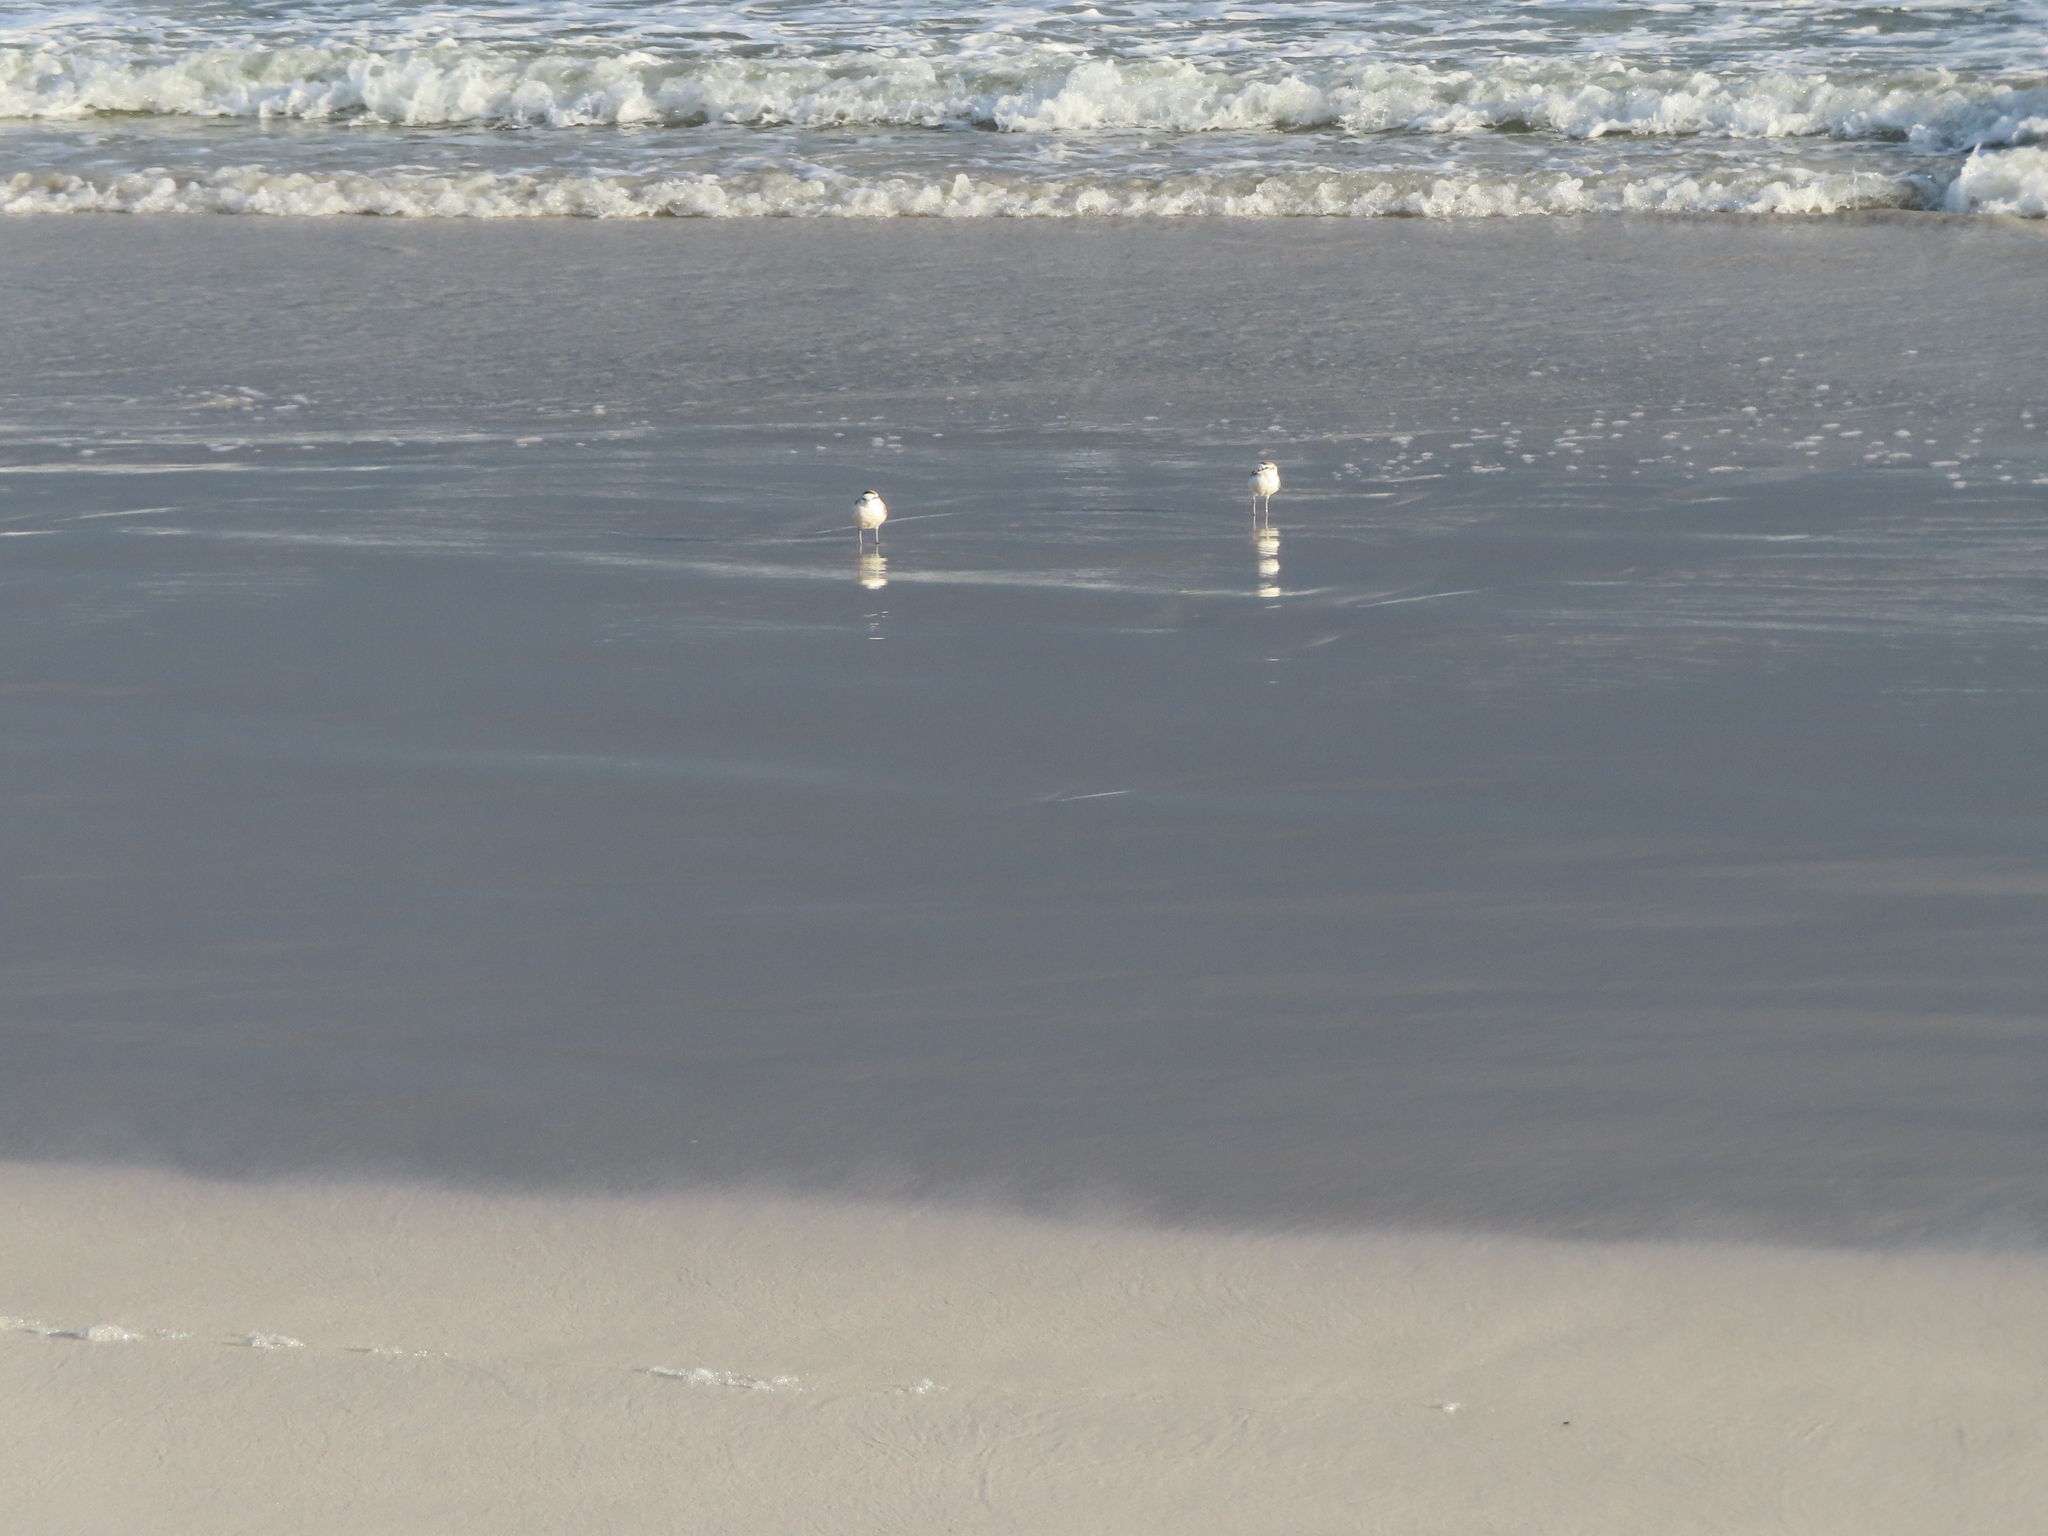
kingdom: Animalia
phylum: Chordata
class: Aves
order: Charadriiformes
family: Charadriidae
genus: Anarhynchus
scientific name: Anarhynchus
